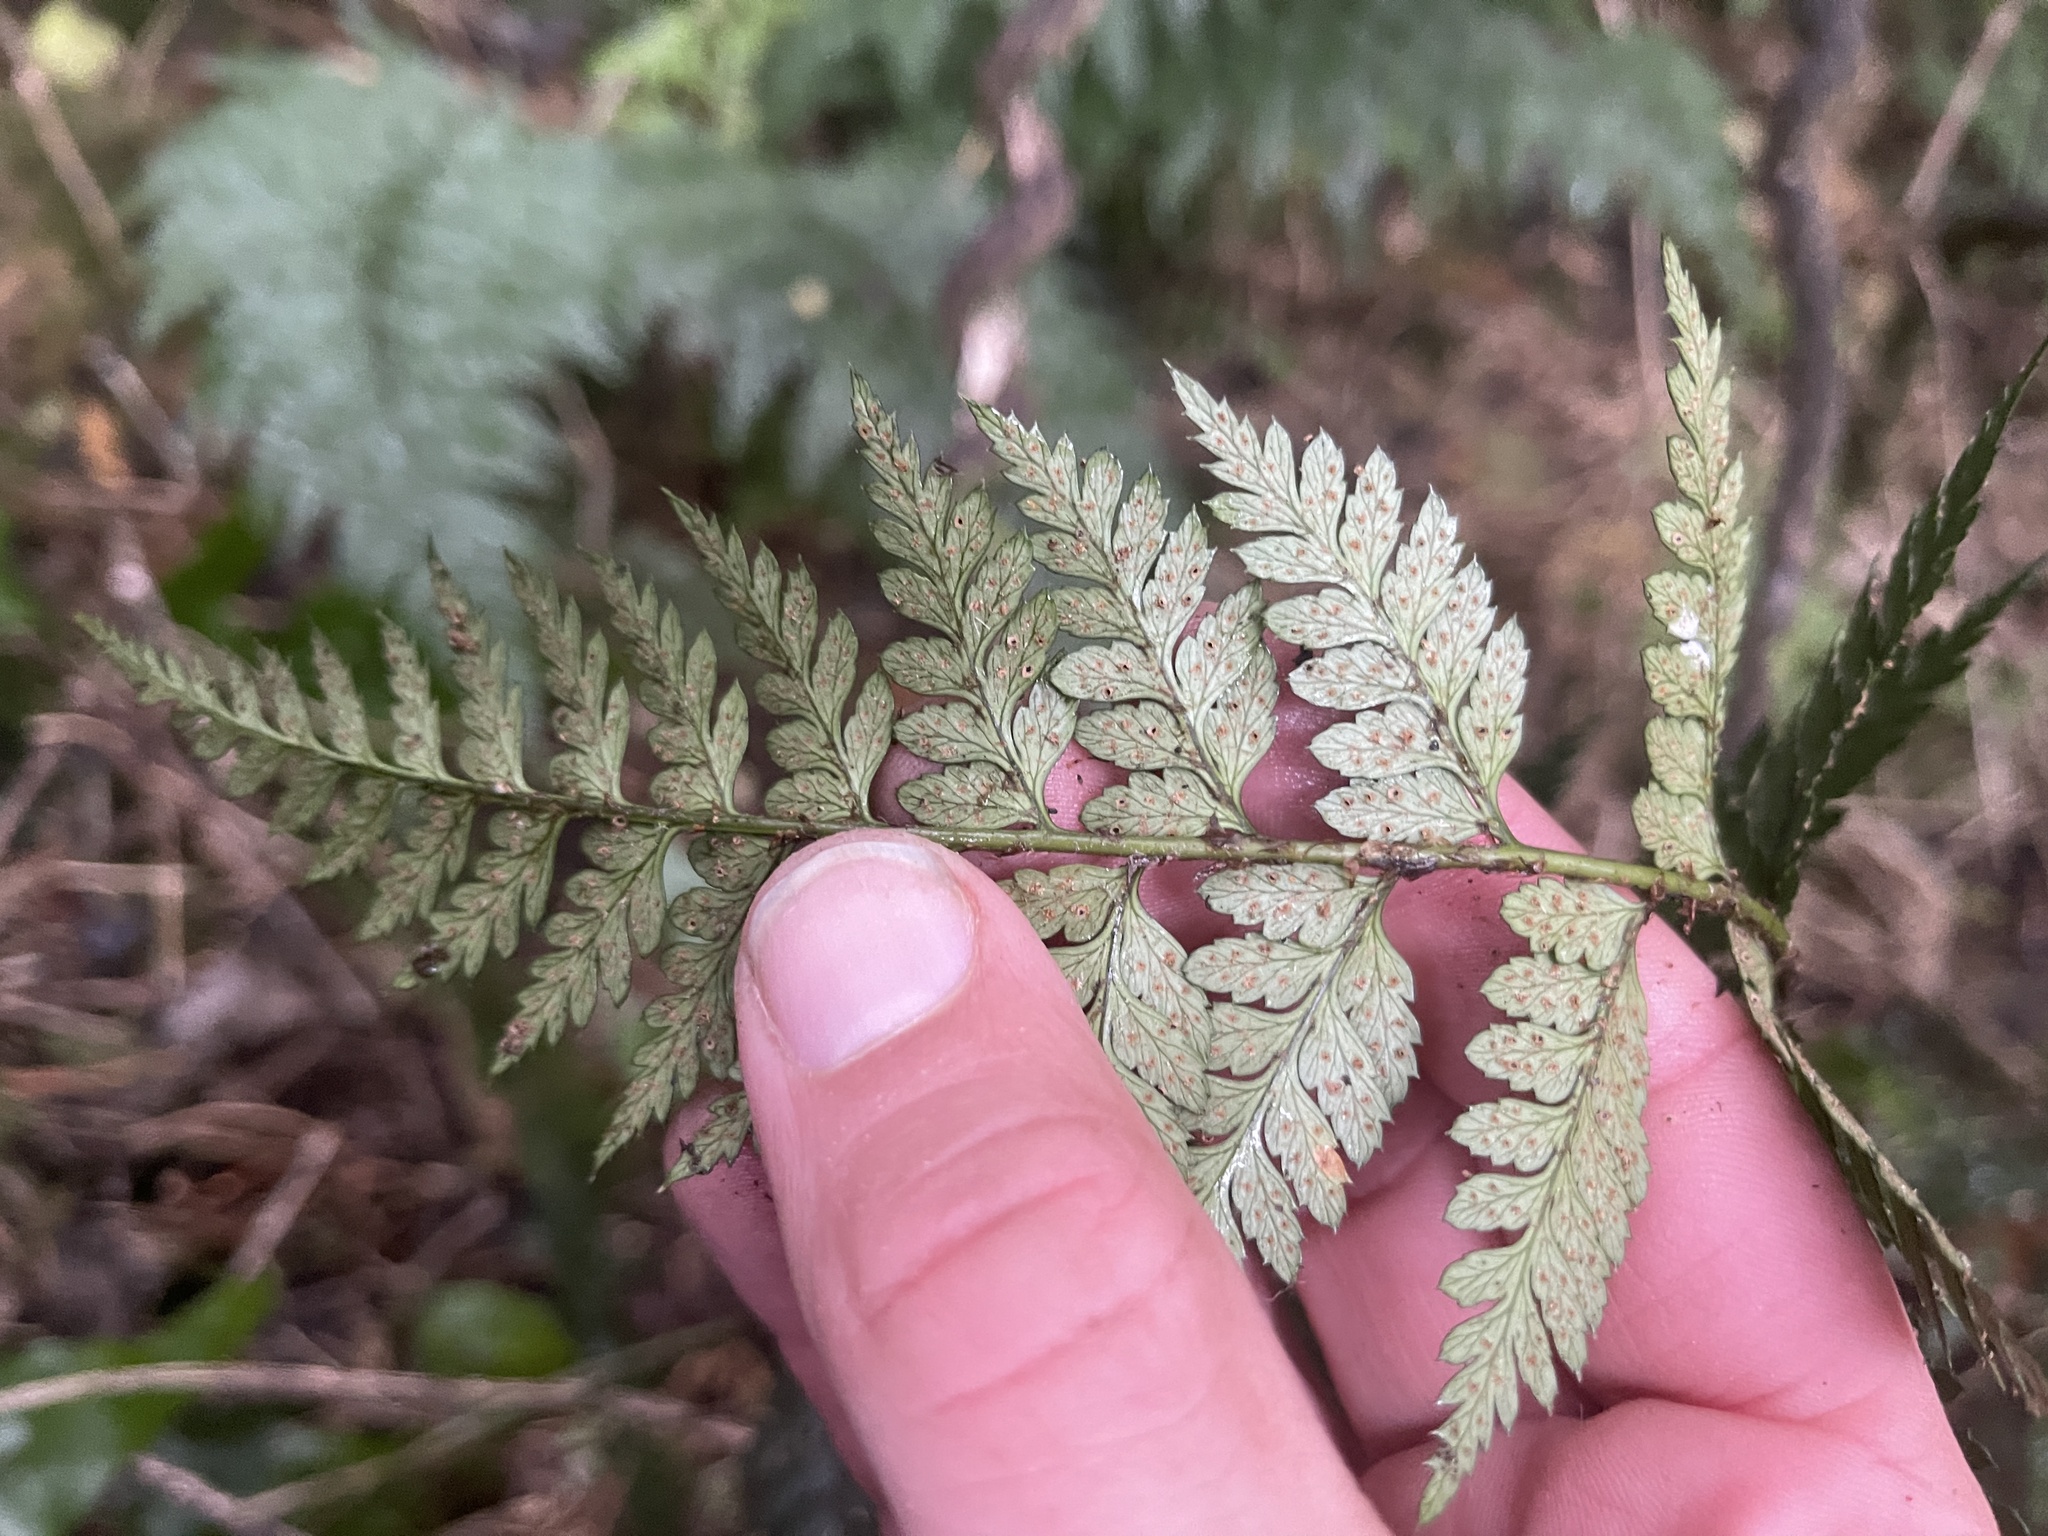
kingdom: Plantae
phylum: Tracheophyta
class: Polypodiopsida
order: Polypodiales
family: Dryopteridaceae
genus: Polystichum
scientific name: Polystichum oculatum
